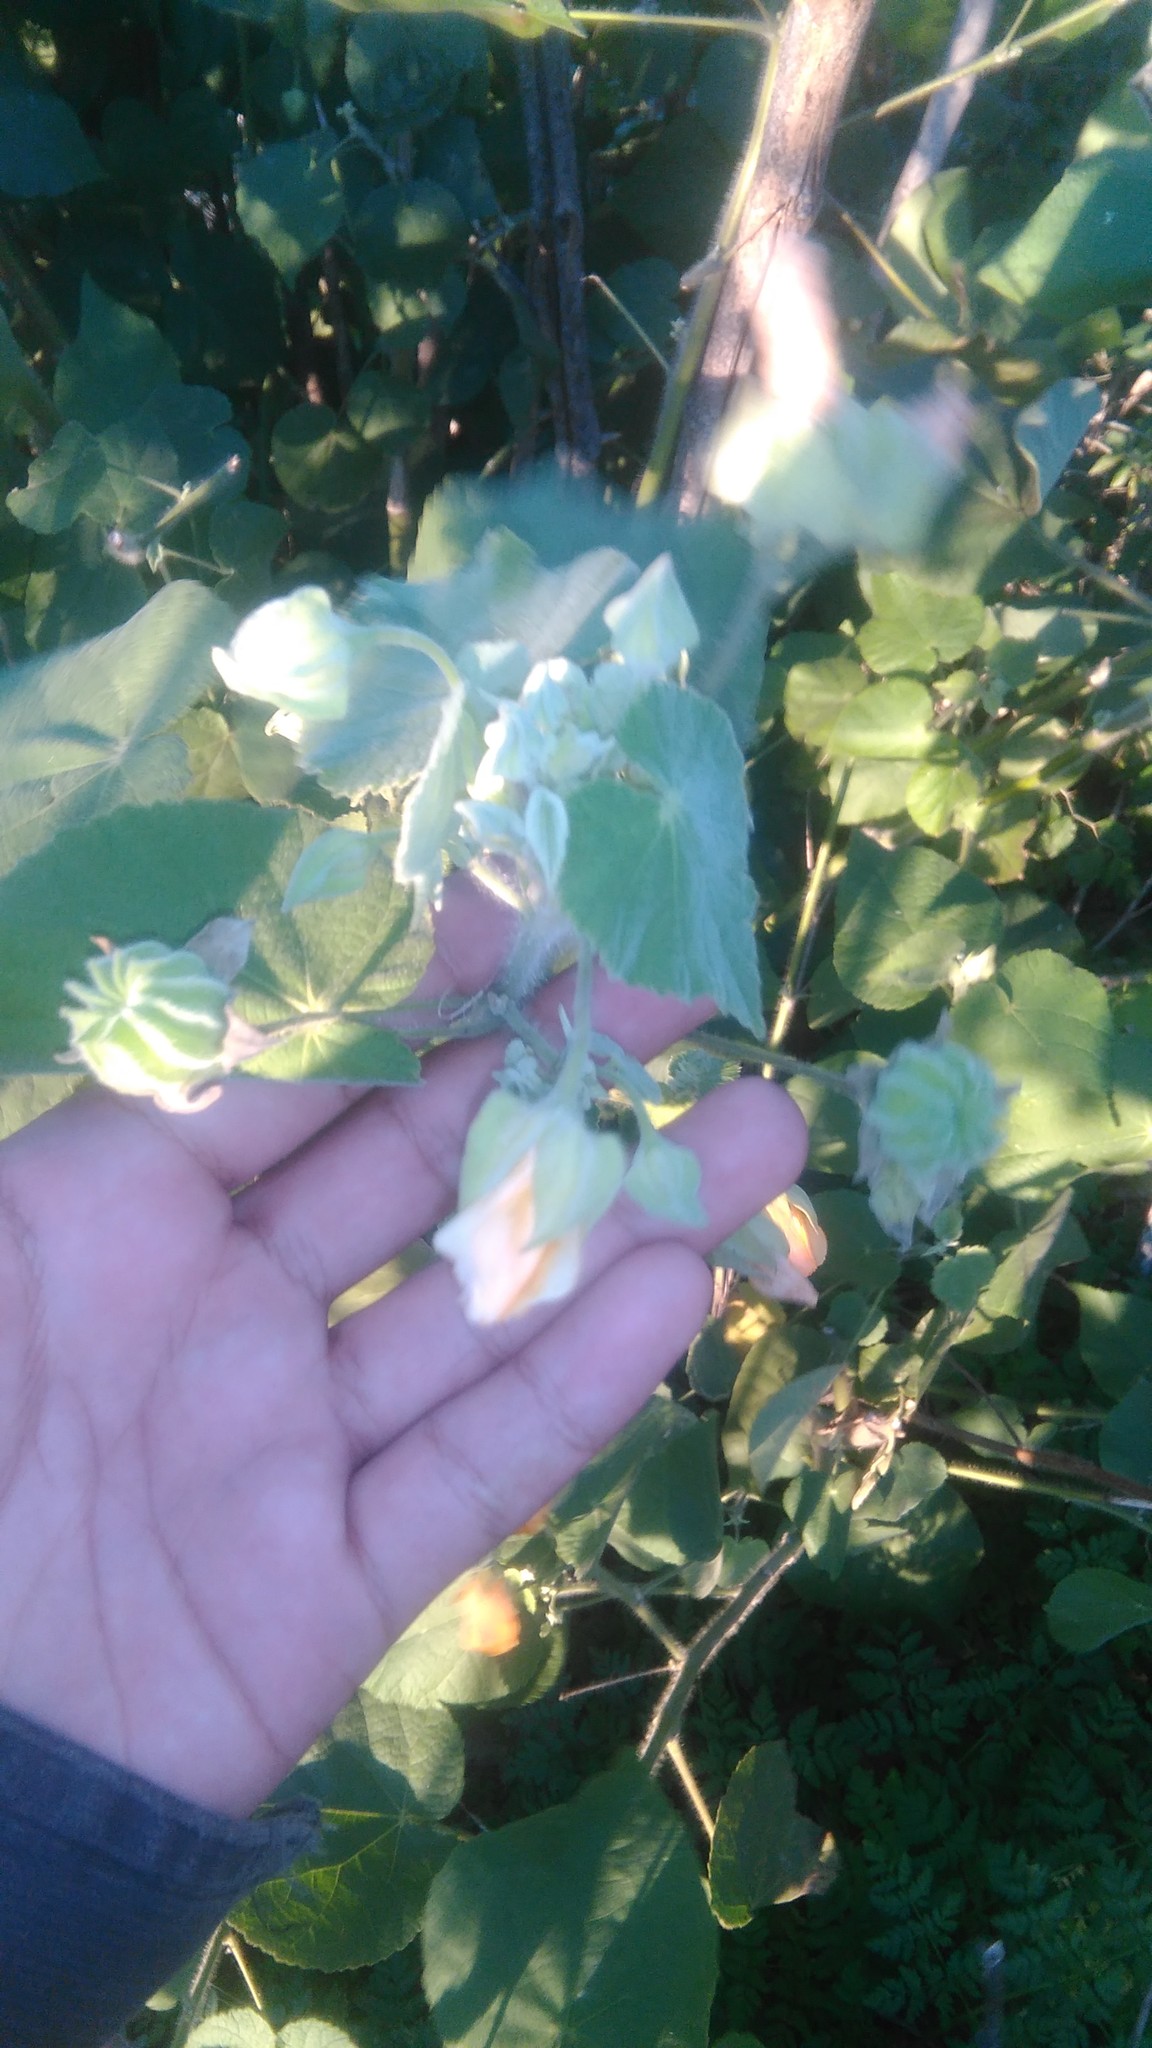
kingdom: Plantae
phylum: Tracheophyta
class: Magnoliopsida
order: Malvales
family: Malvaceae
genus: Abutilon
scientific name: Abutilon grandifolium
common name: Hairy abutilon
